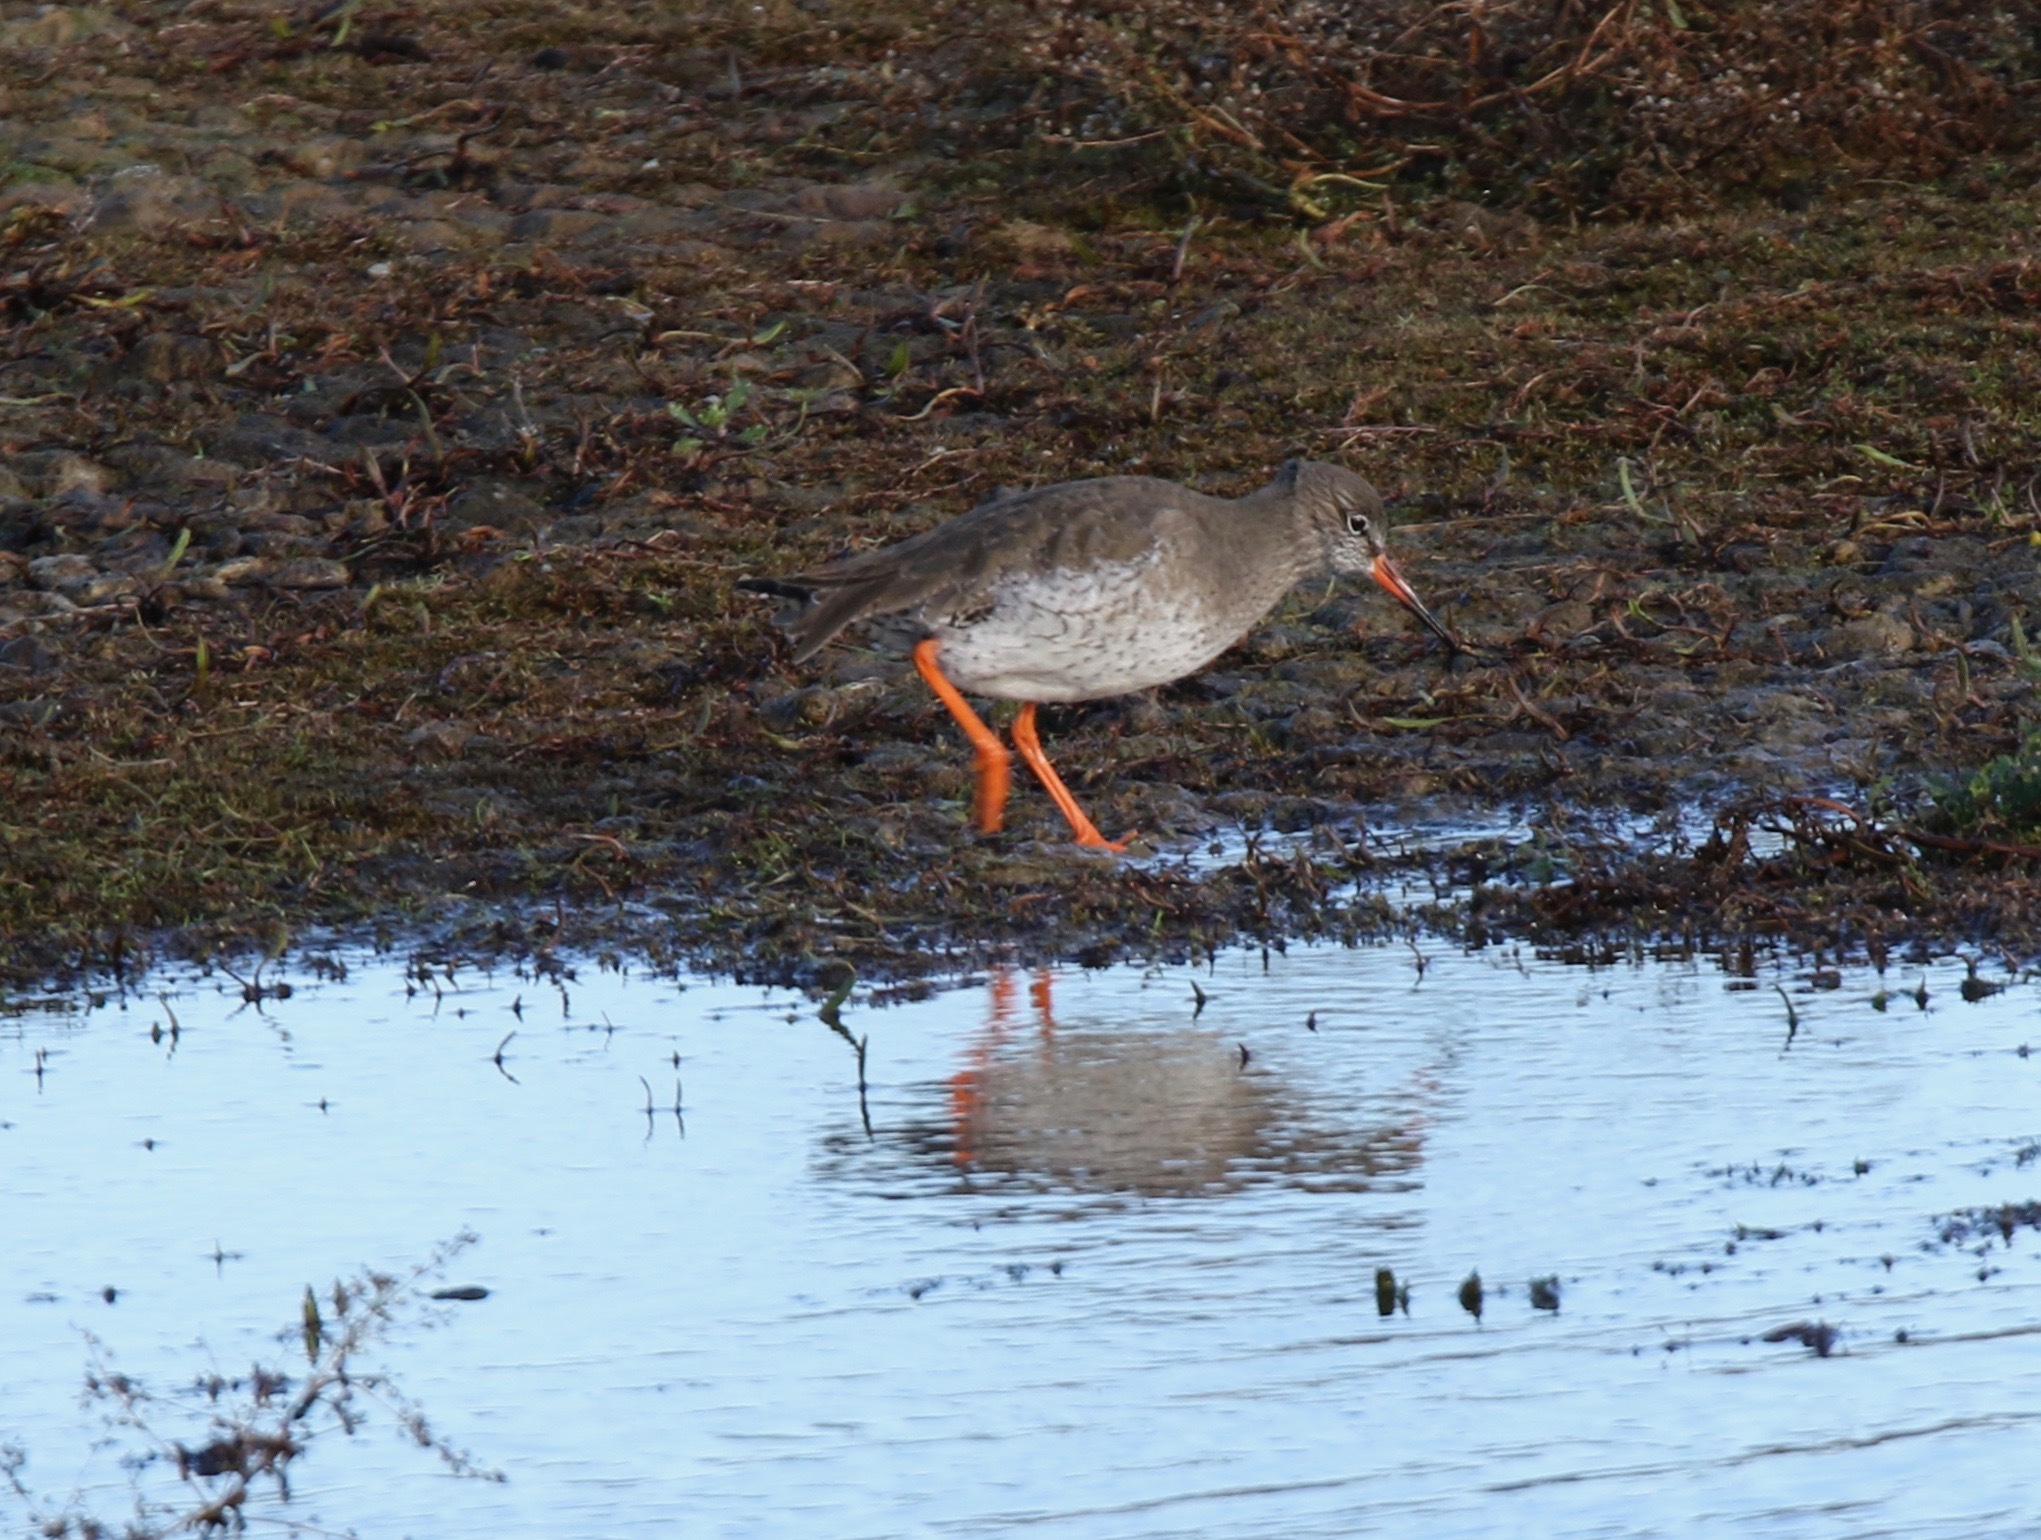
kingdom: Animalia
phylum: Chordata
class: Aves
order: Charadriiformes
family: Scolopacidae
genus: Tringa
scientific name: Tringa totanus
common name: Common redshank
